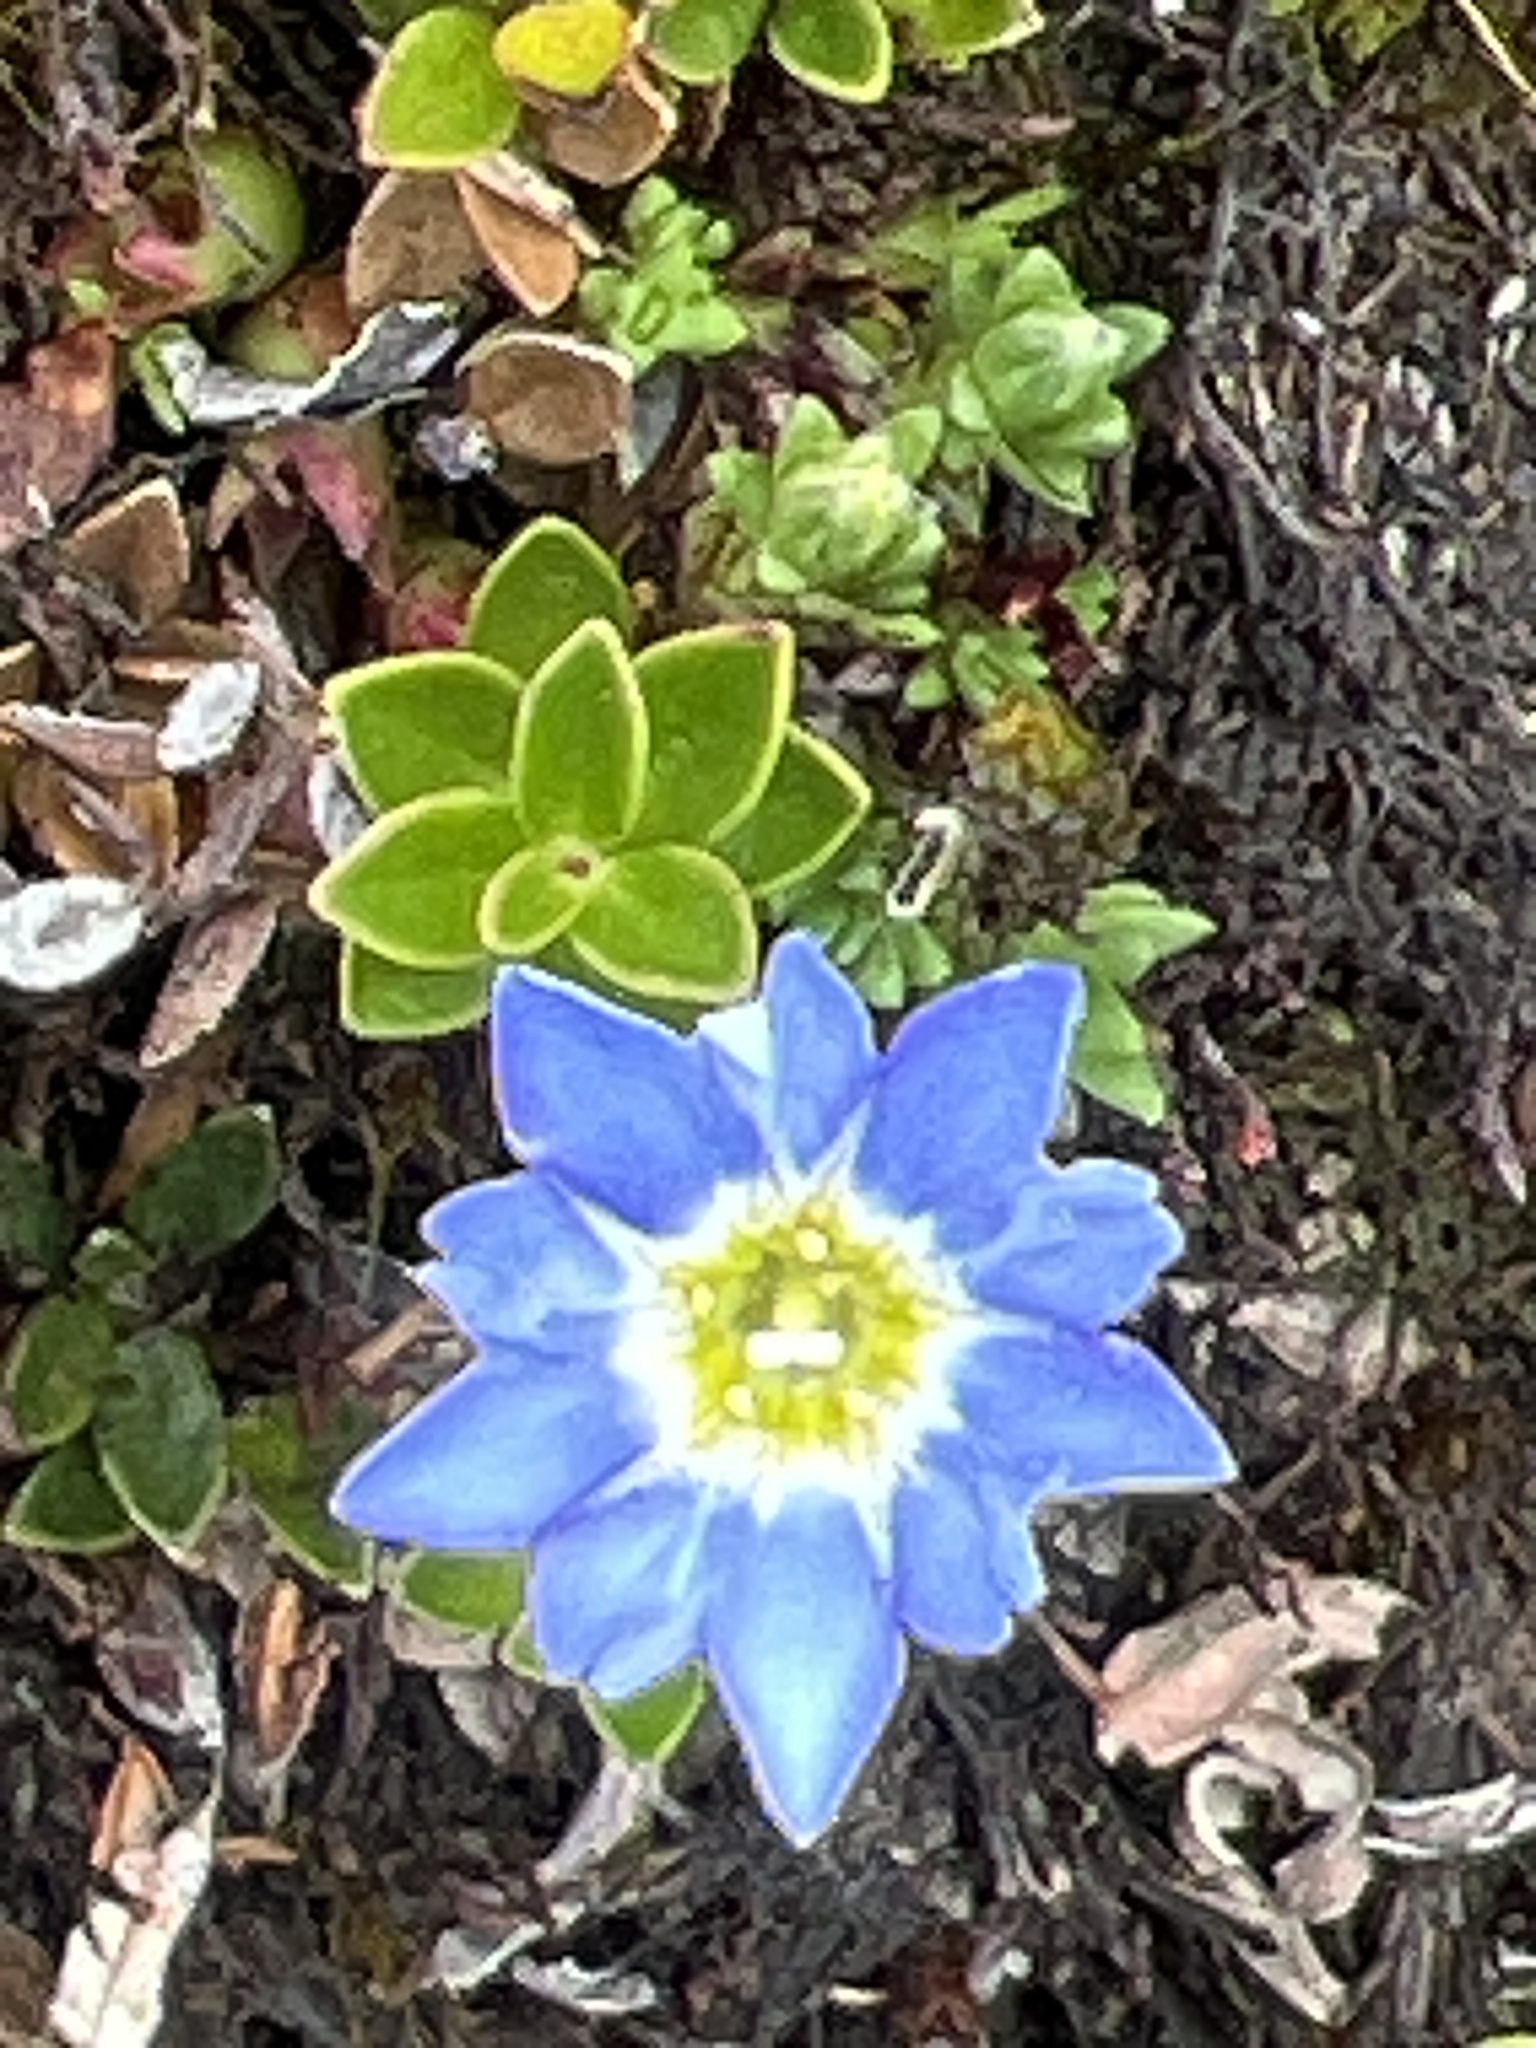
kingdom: Plantae
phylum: Tracheophyta
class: Magnoliopsida
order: Gentianales
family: Gentianaceae
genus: Gentiana
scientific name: Gentiana sedifolia
